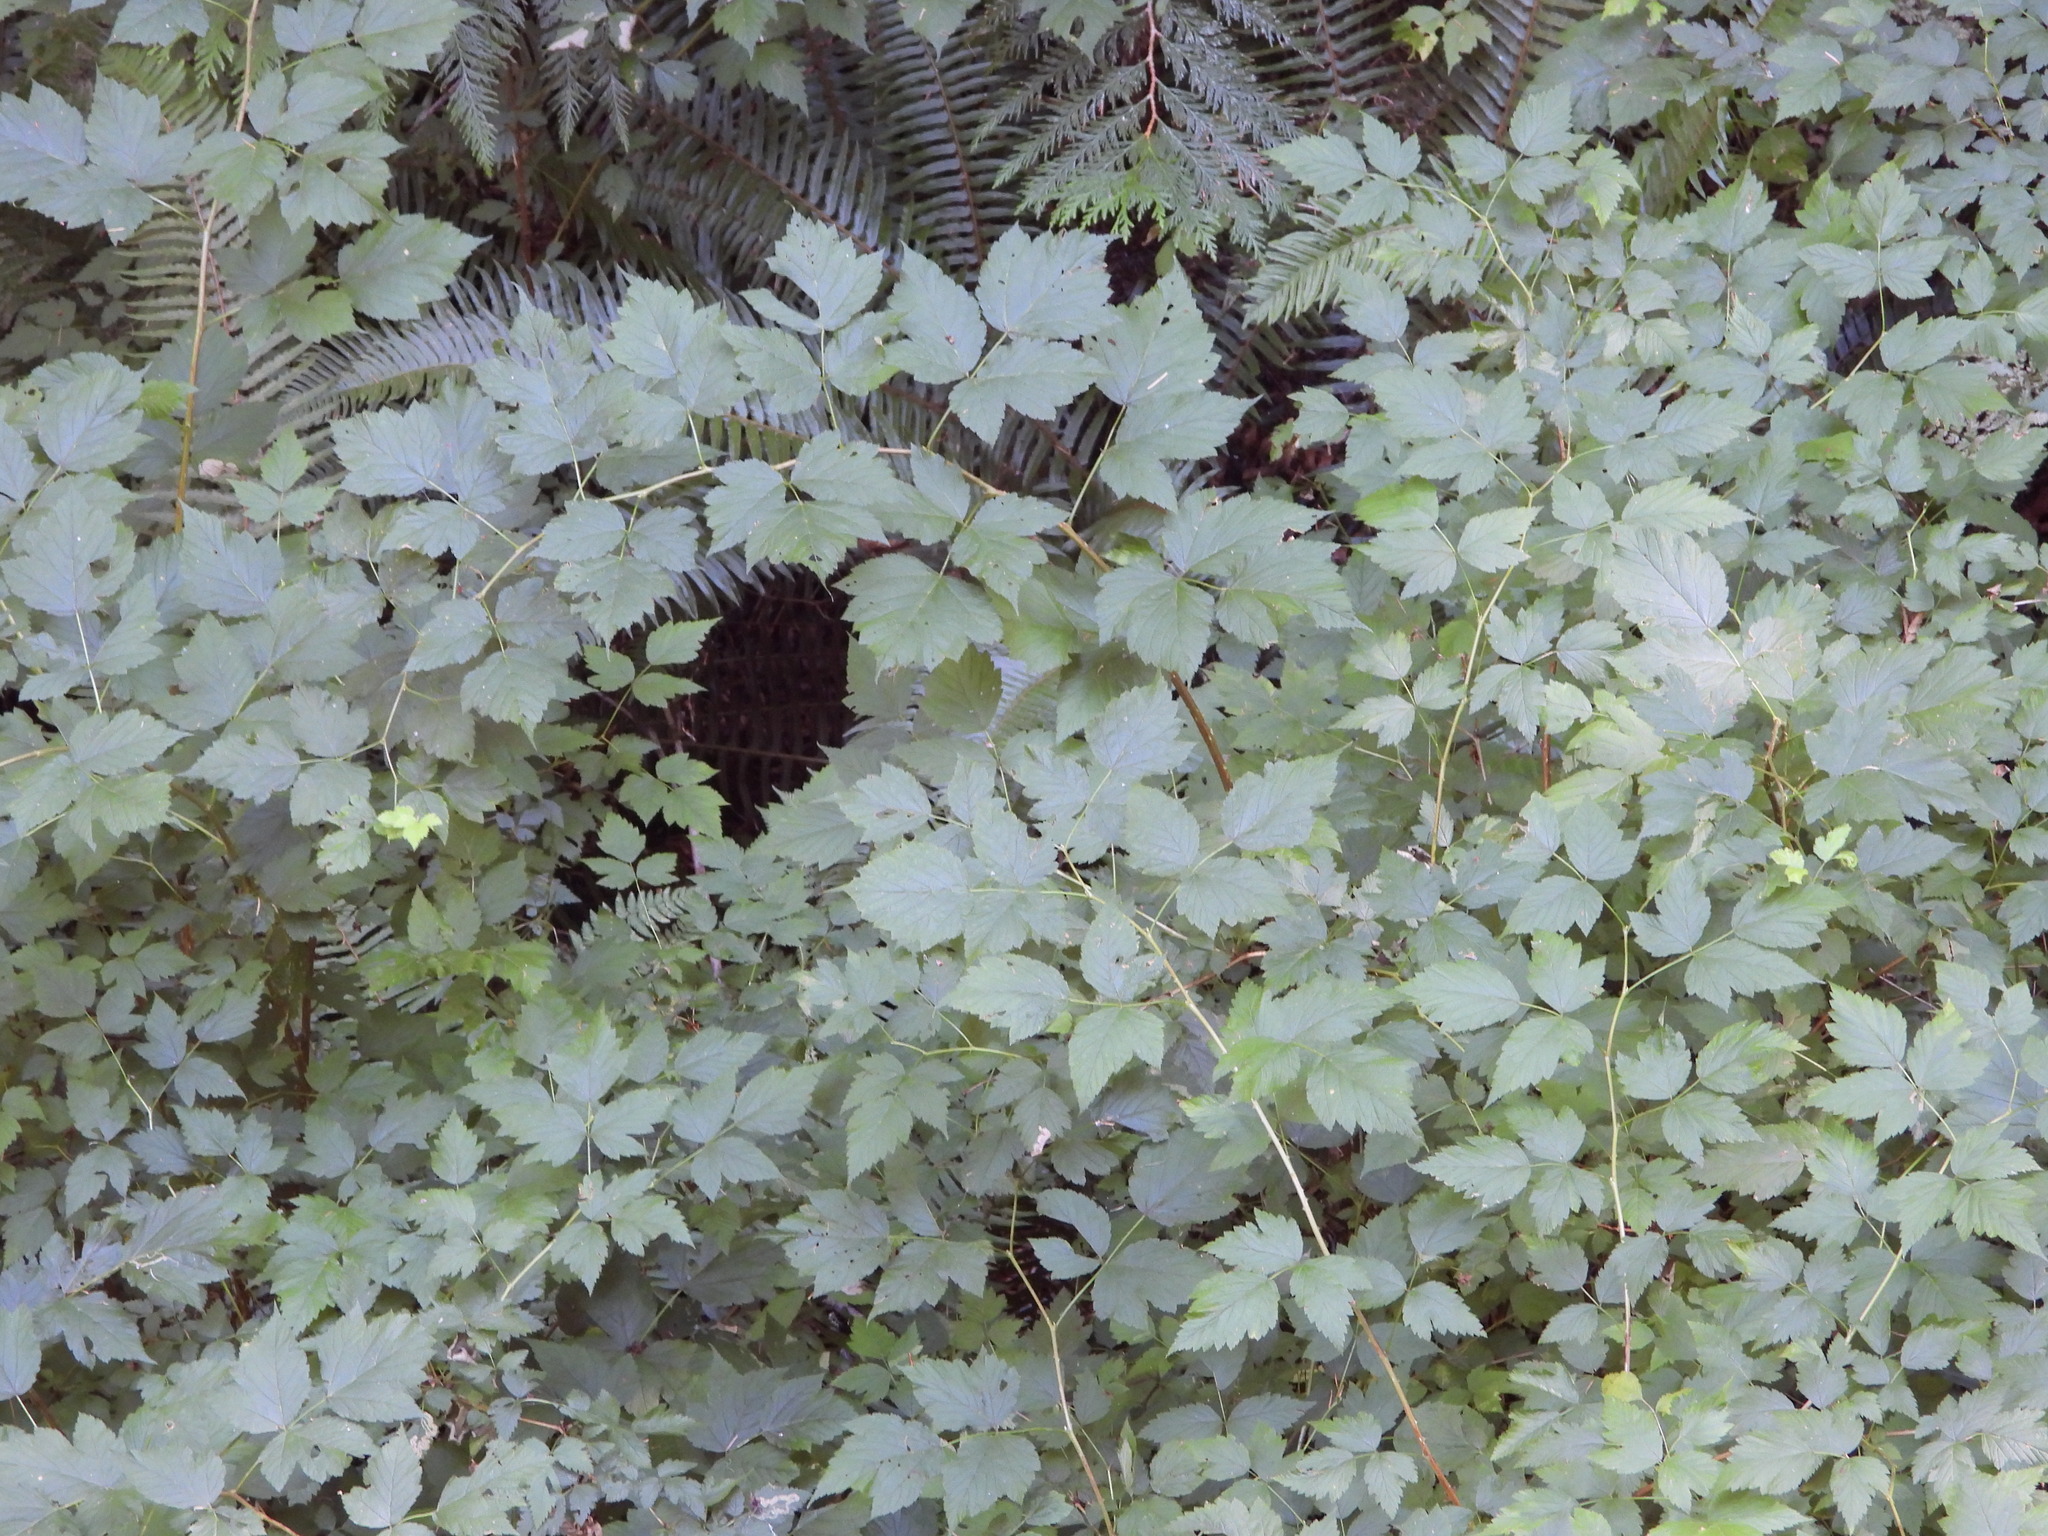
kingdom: Plantae
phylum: Tracheophyta
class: Magnoliopsida
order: Rosales
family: Rosaceae
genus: Rubus
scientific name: Rubus spectabilis
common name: Salmonberry
